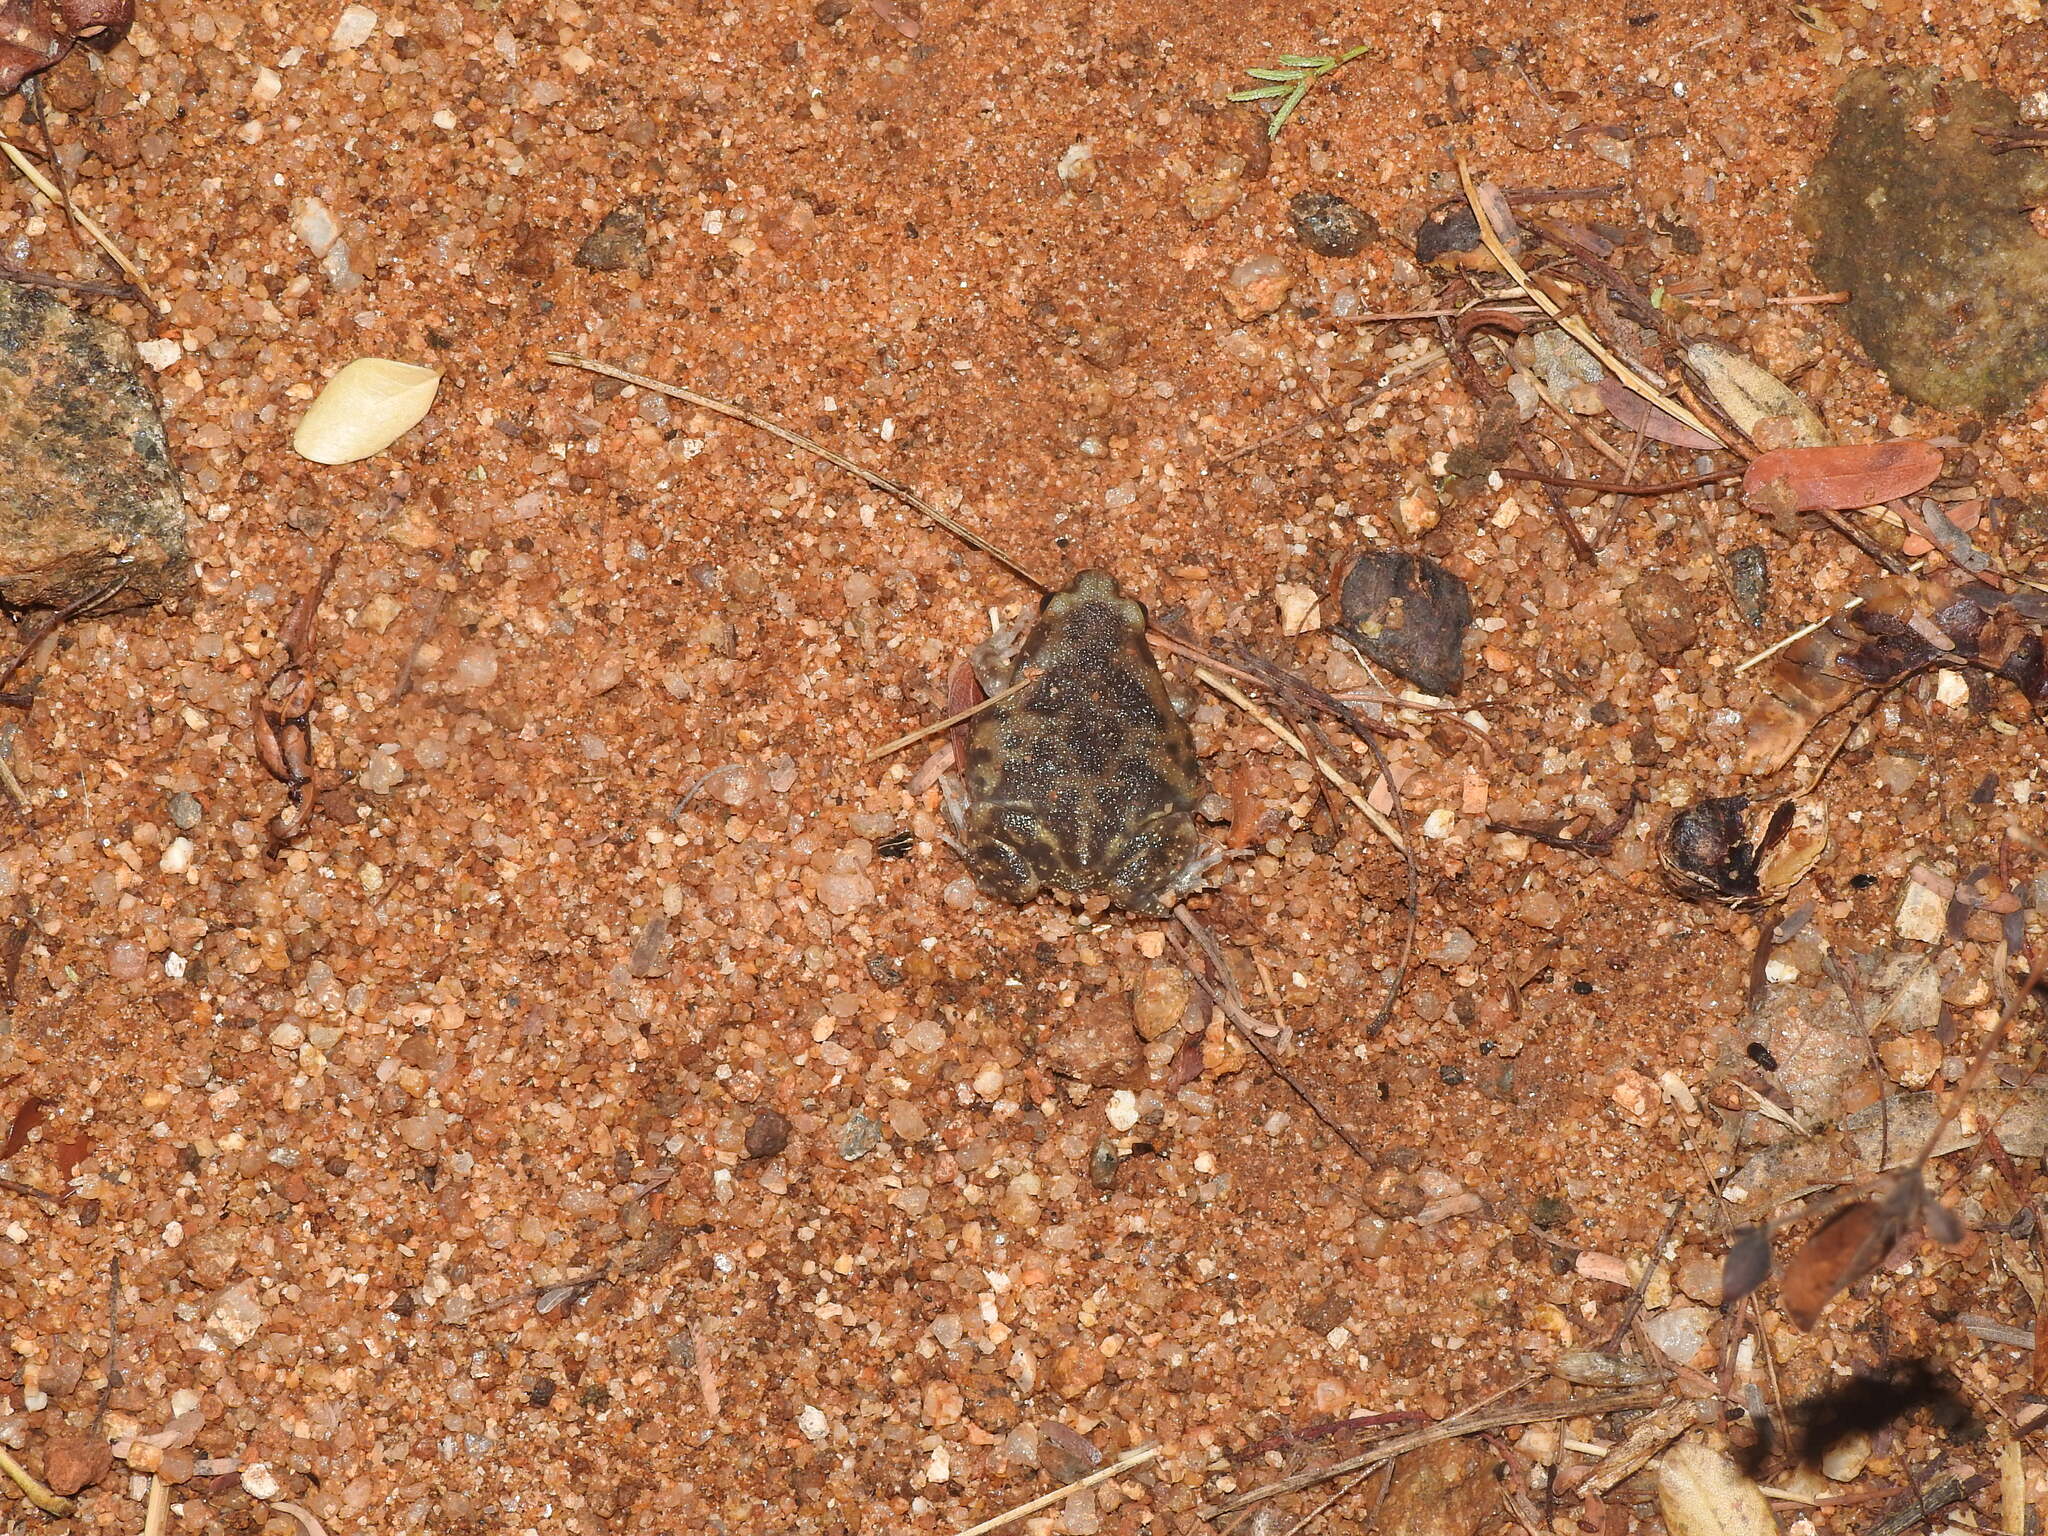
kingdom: Animalia
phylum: Chordata
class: Amphibia
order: Anura
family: Microhylidae
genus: Uperodon
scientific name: Uperodon systoma
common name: Balloon frog
